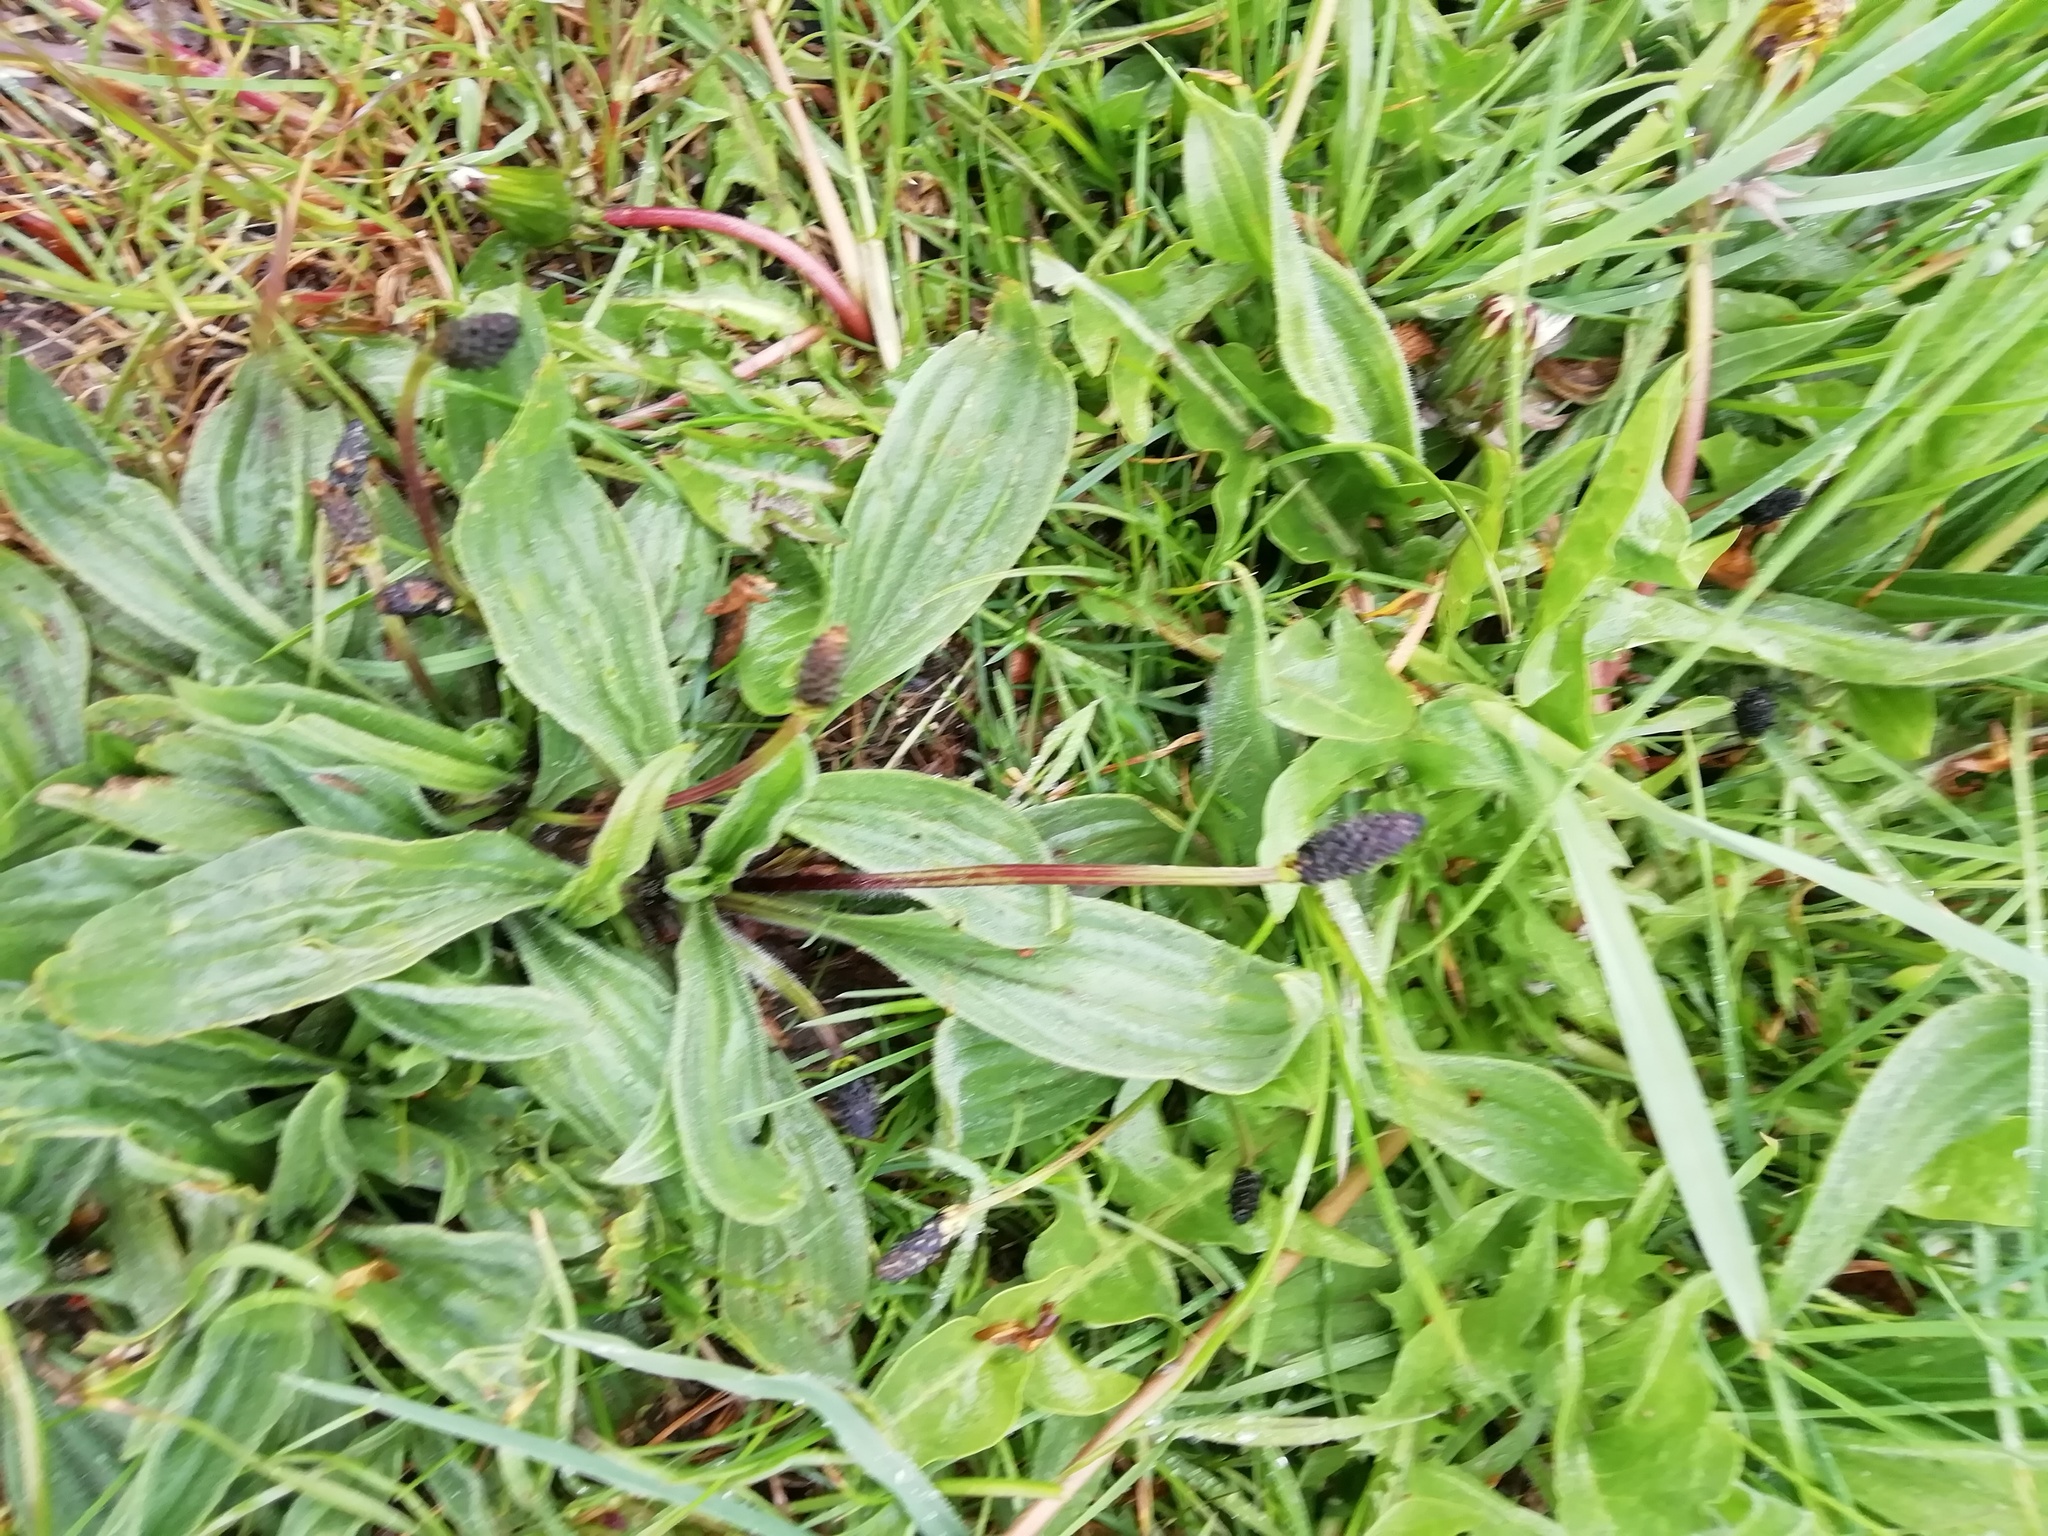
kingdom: Plantae
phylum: Tracheophyta
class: Magnoliopsida
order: Lamiales
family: Plantaginaceae
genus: Plantago
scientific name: Plantago lanceolata
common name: Ribwort plantain
